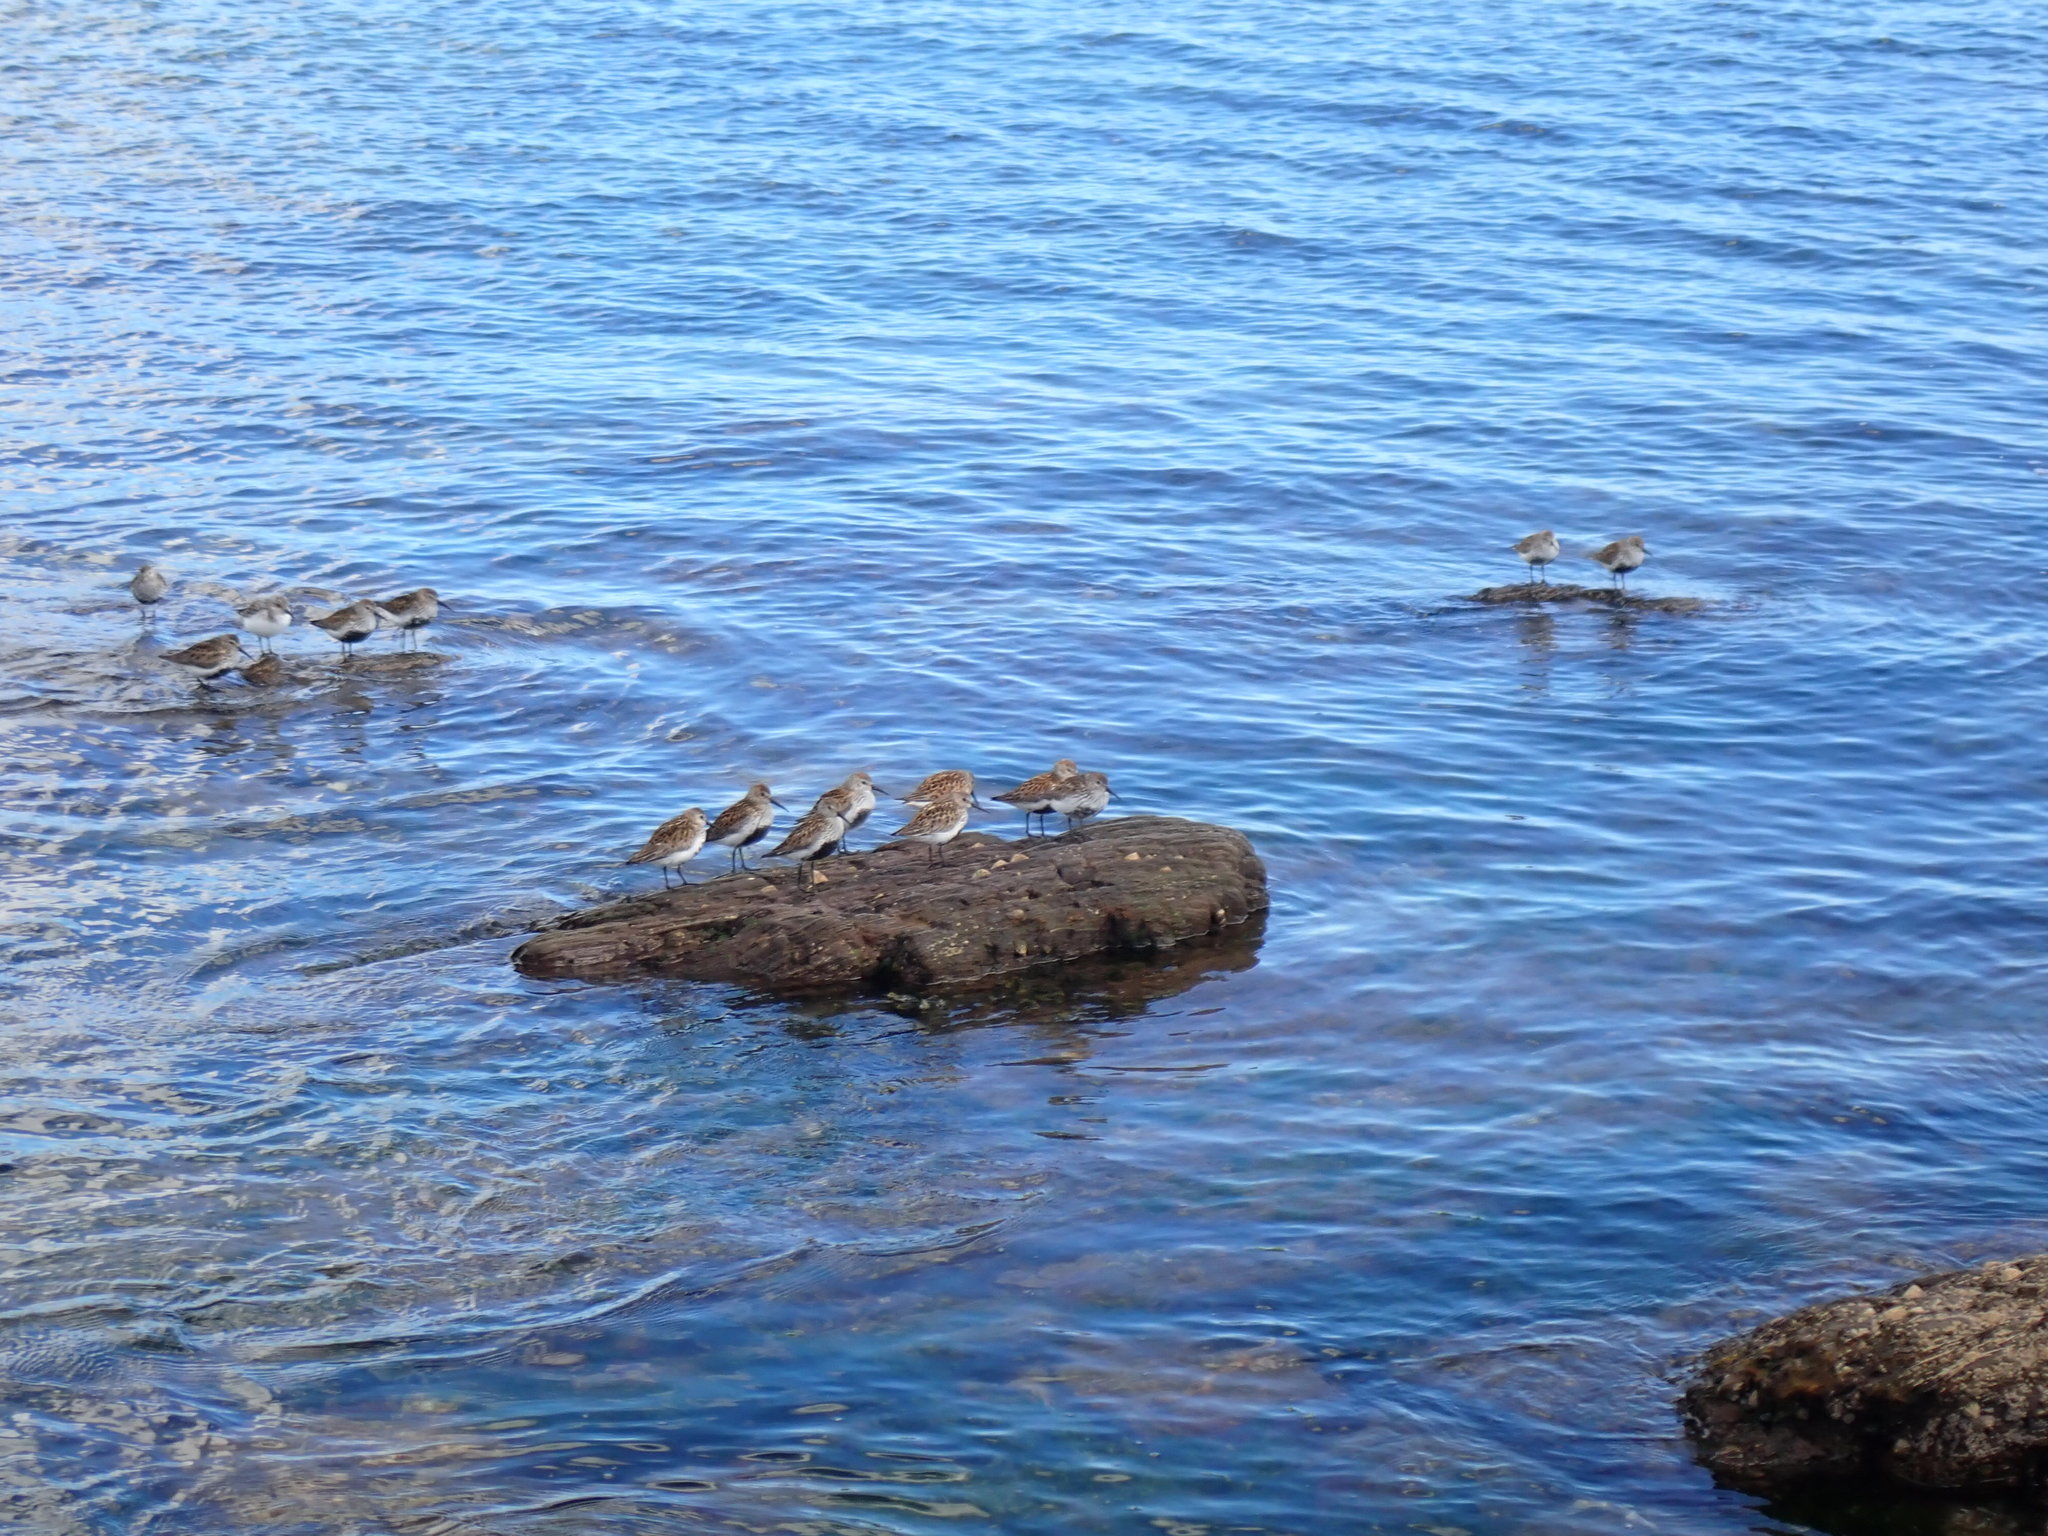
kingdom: Animalia
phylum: Chordata
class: Aves
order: Charadriiformes
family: Scolopacidae
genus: Calidris
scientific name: Calidris alpina
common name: Dunlin
